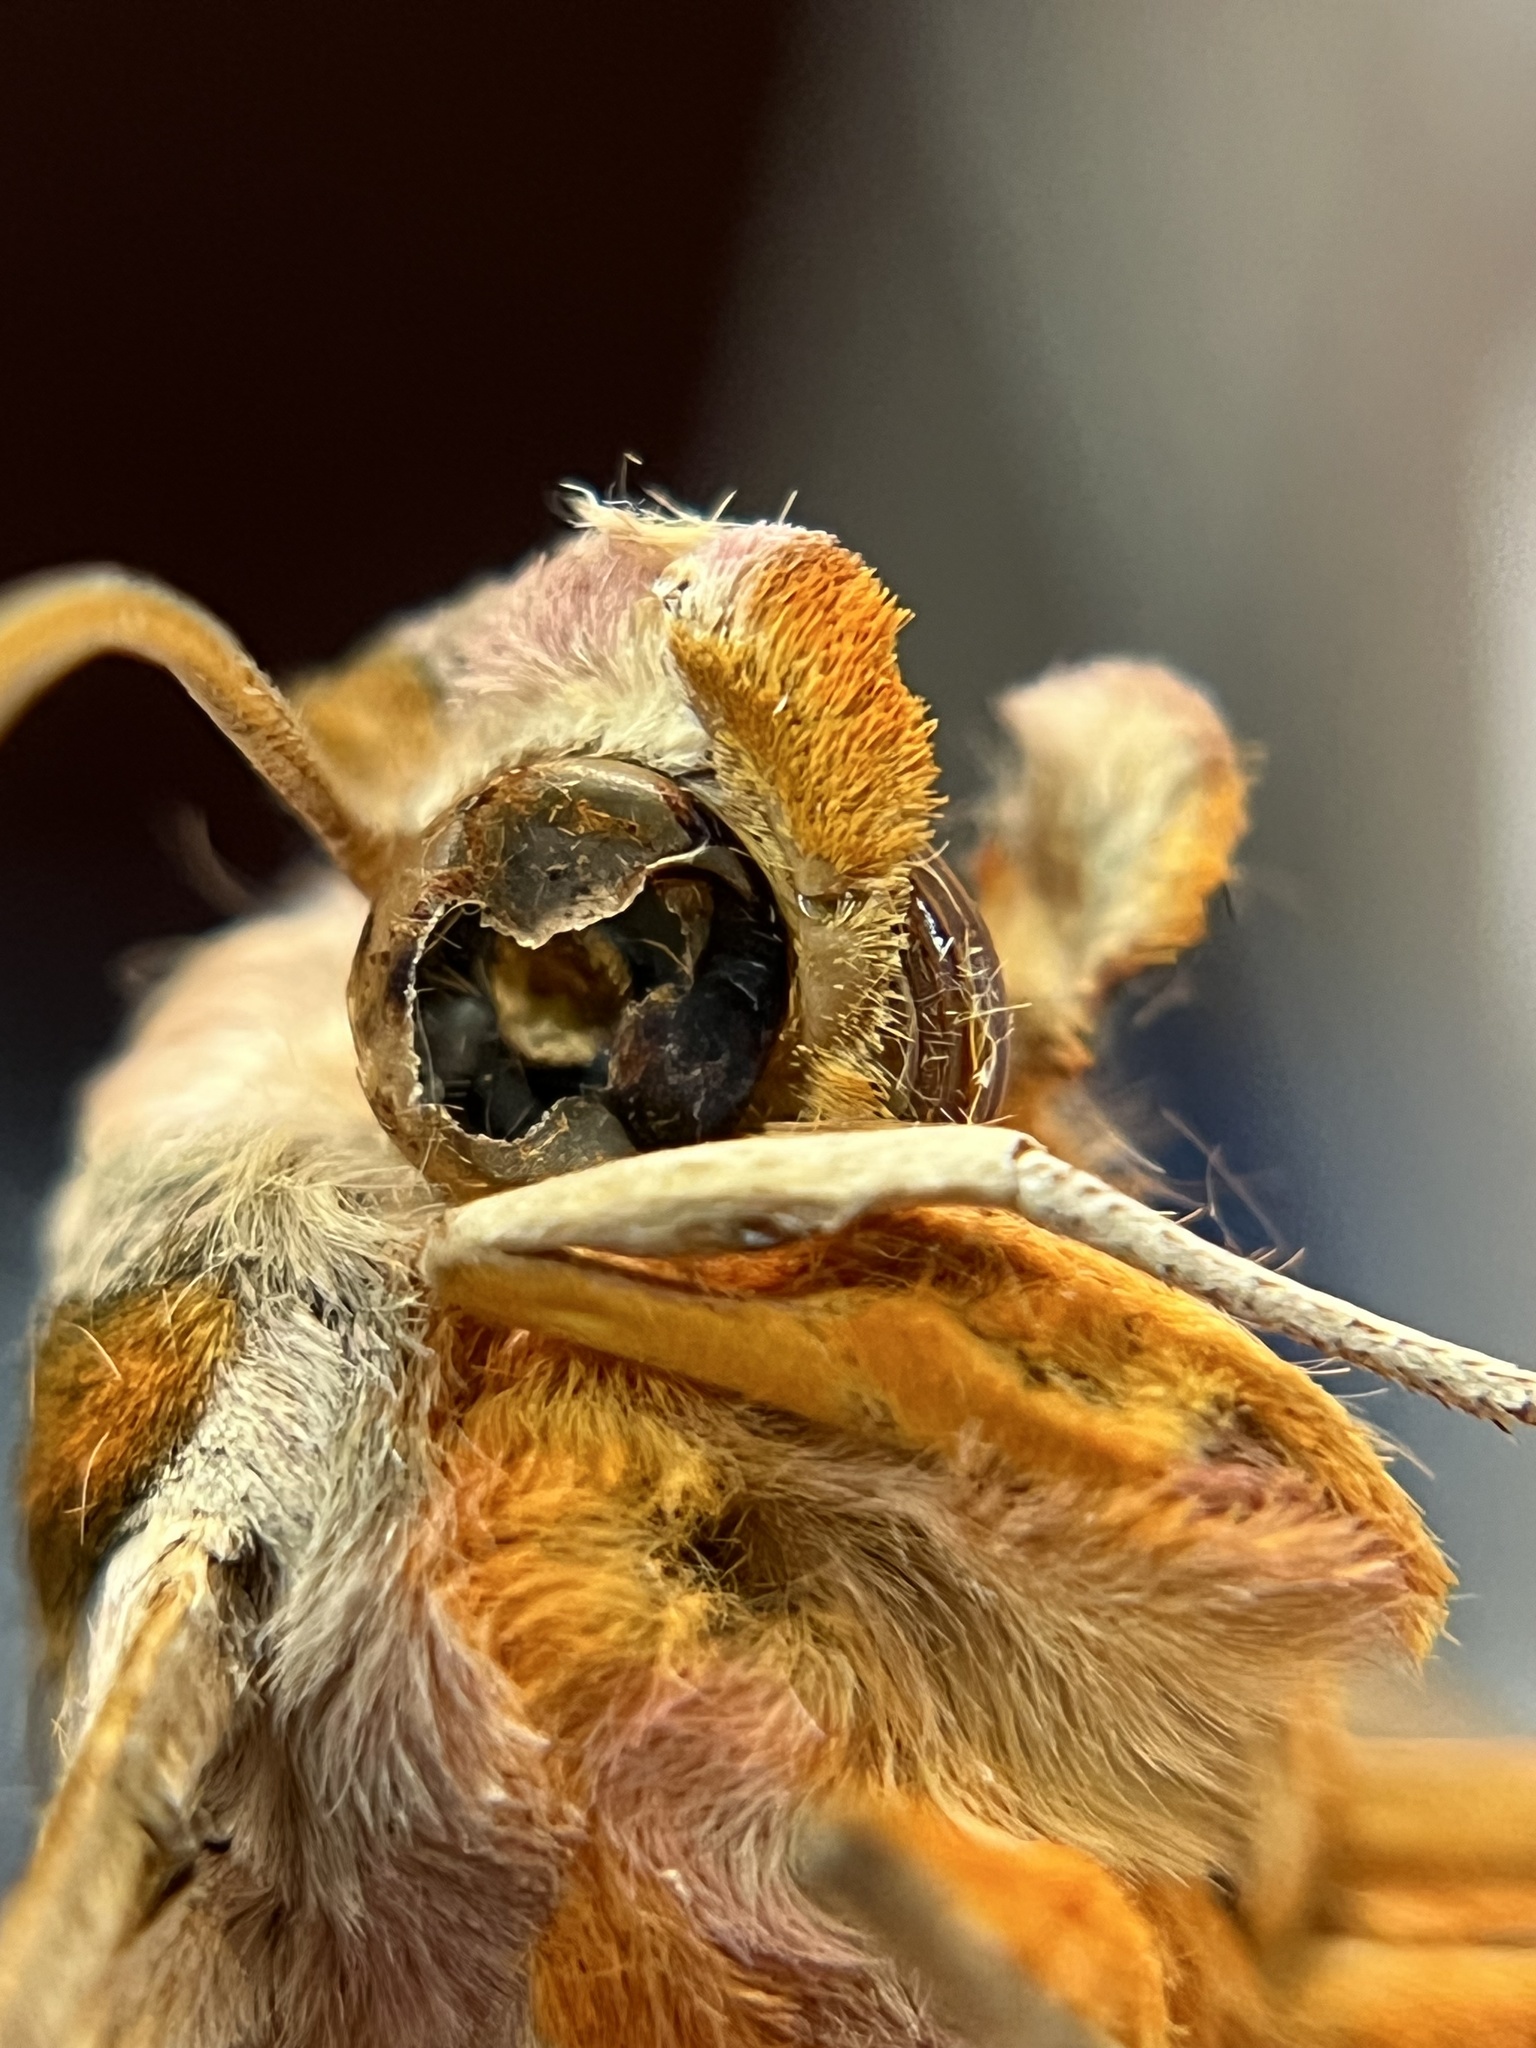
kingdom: Animalia
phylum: Arthropoda
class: Insecta
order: Lepidoptera
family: Sphingidae
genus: Protambulyx
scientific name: Protambulyx strigilis
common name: Streaked sphinx
